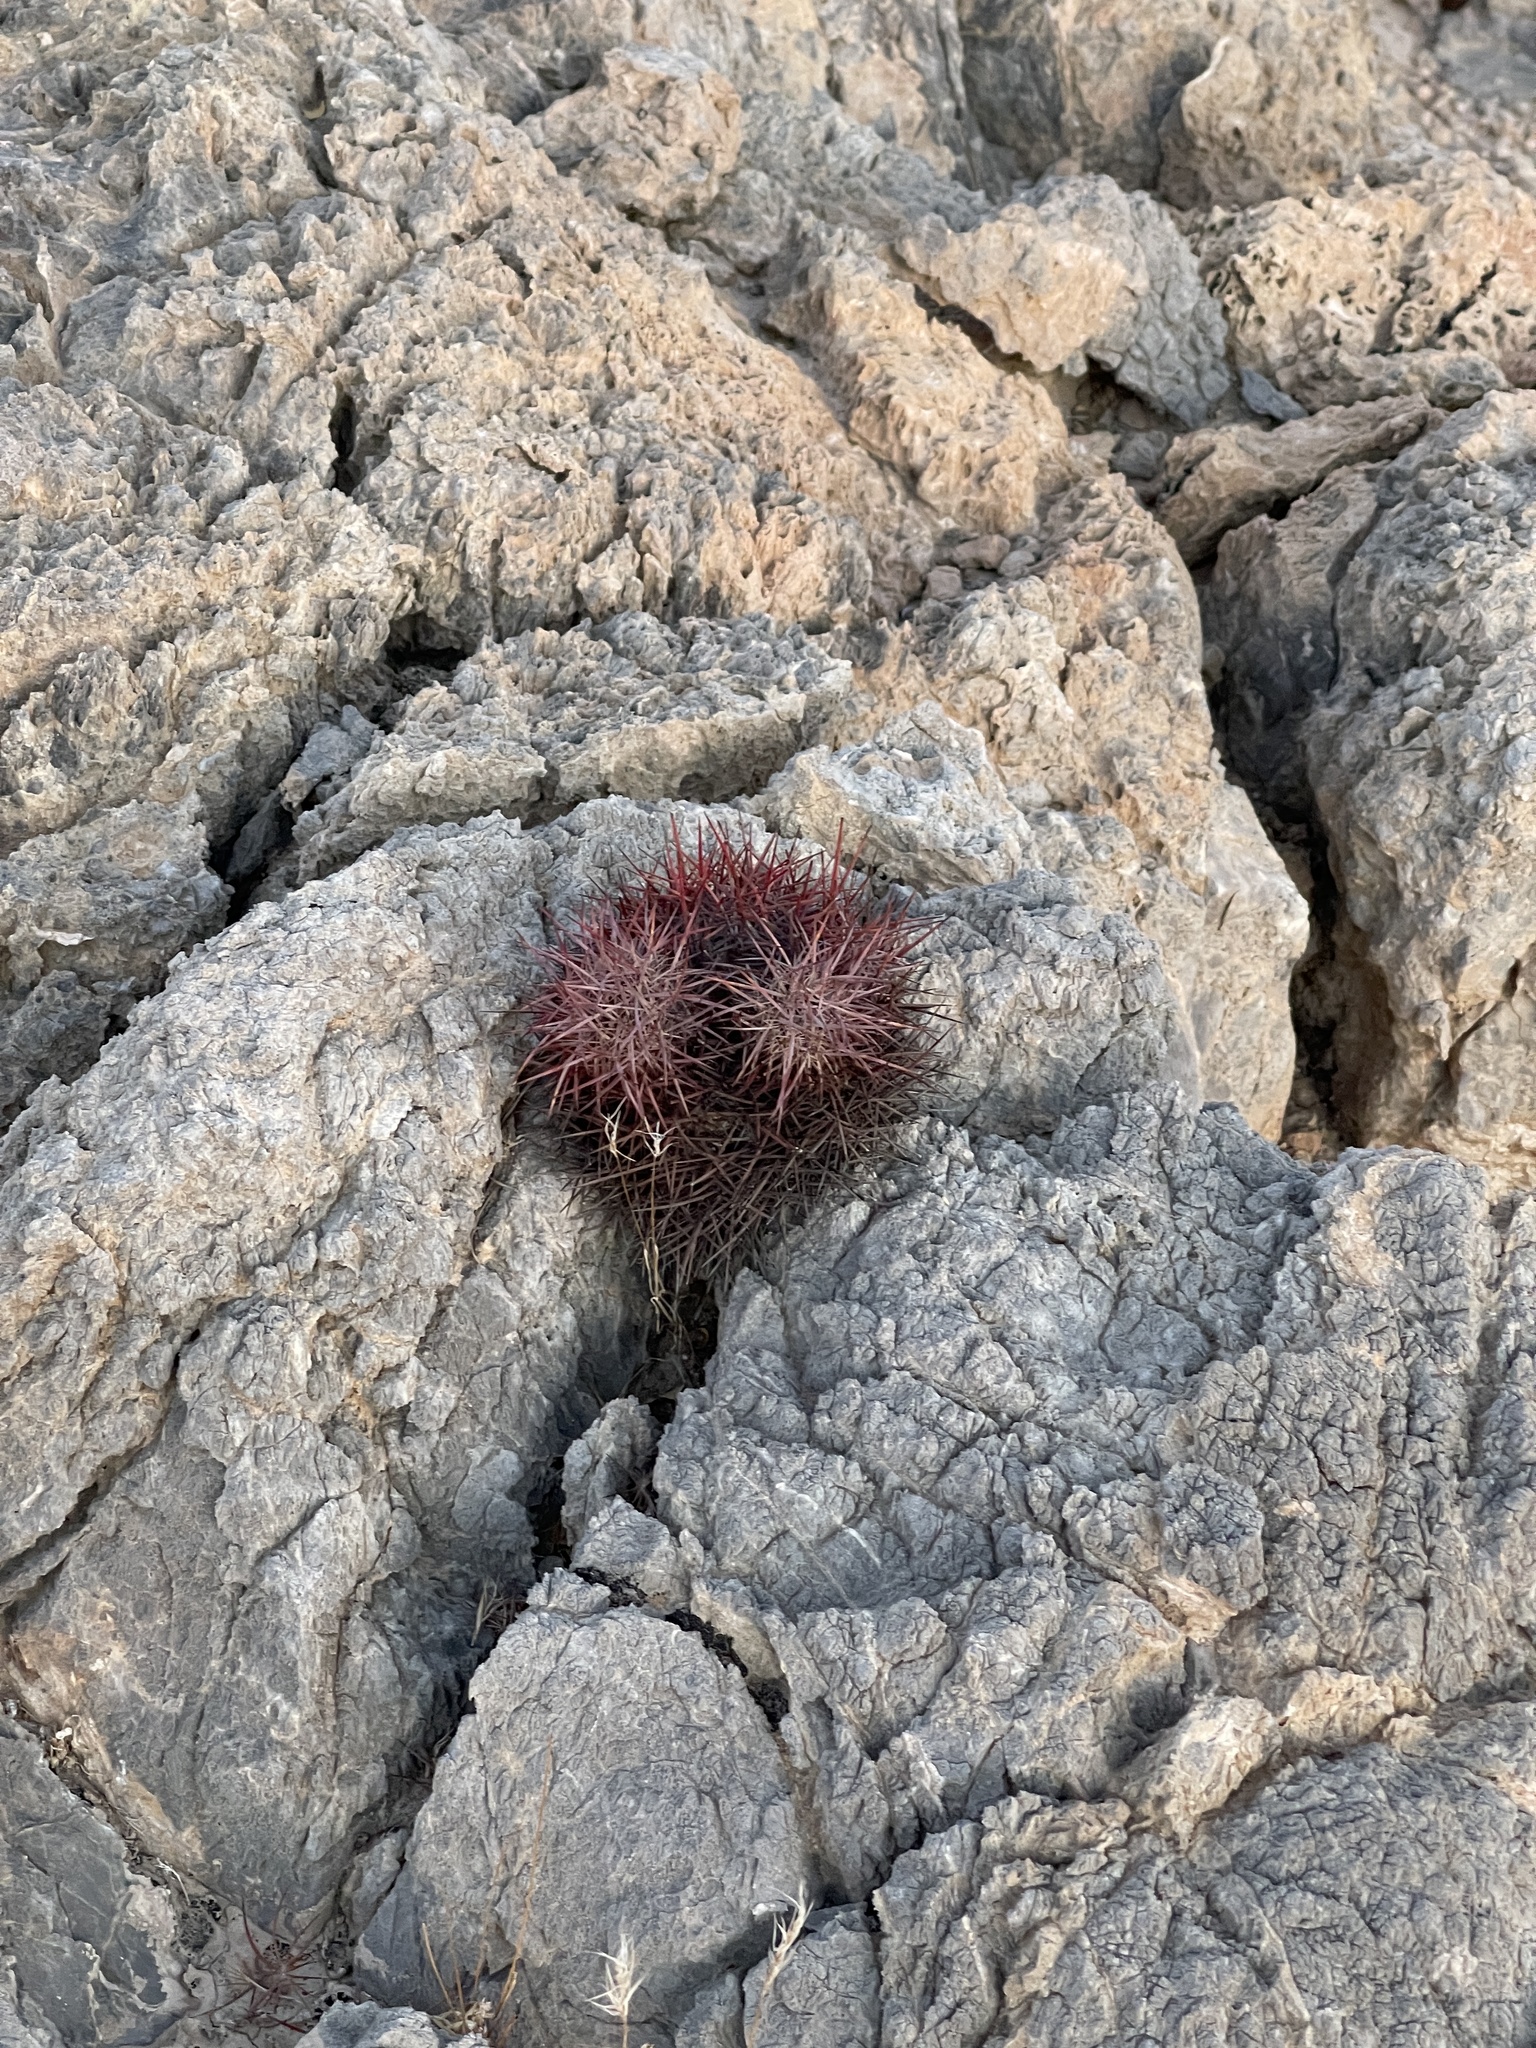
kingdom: Plantae
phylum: Tracheophyta
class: Magnoliopsida
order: Caryophyllales
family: Cactaceae
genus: Sclerocactus
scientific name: Sclerocactus johnsonii
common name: Eight-spine fishhook cactus
